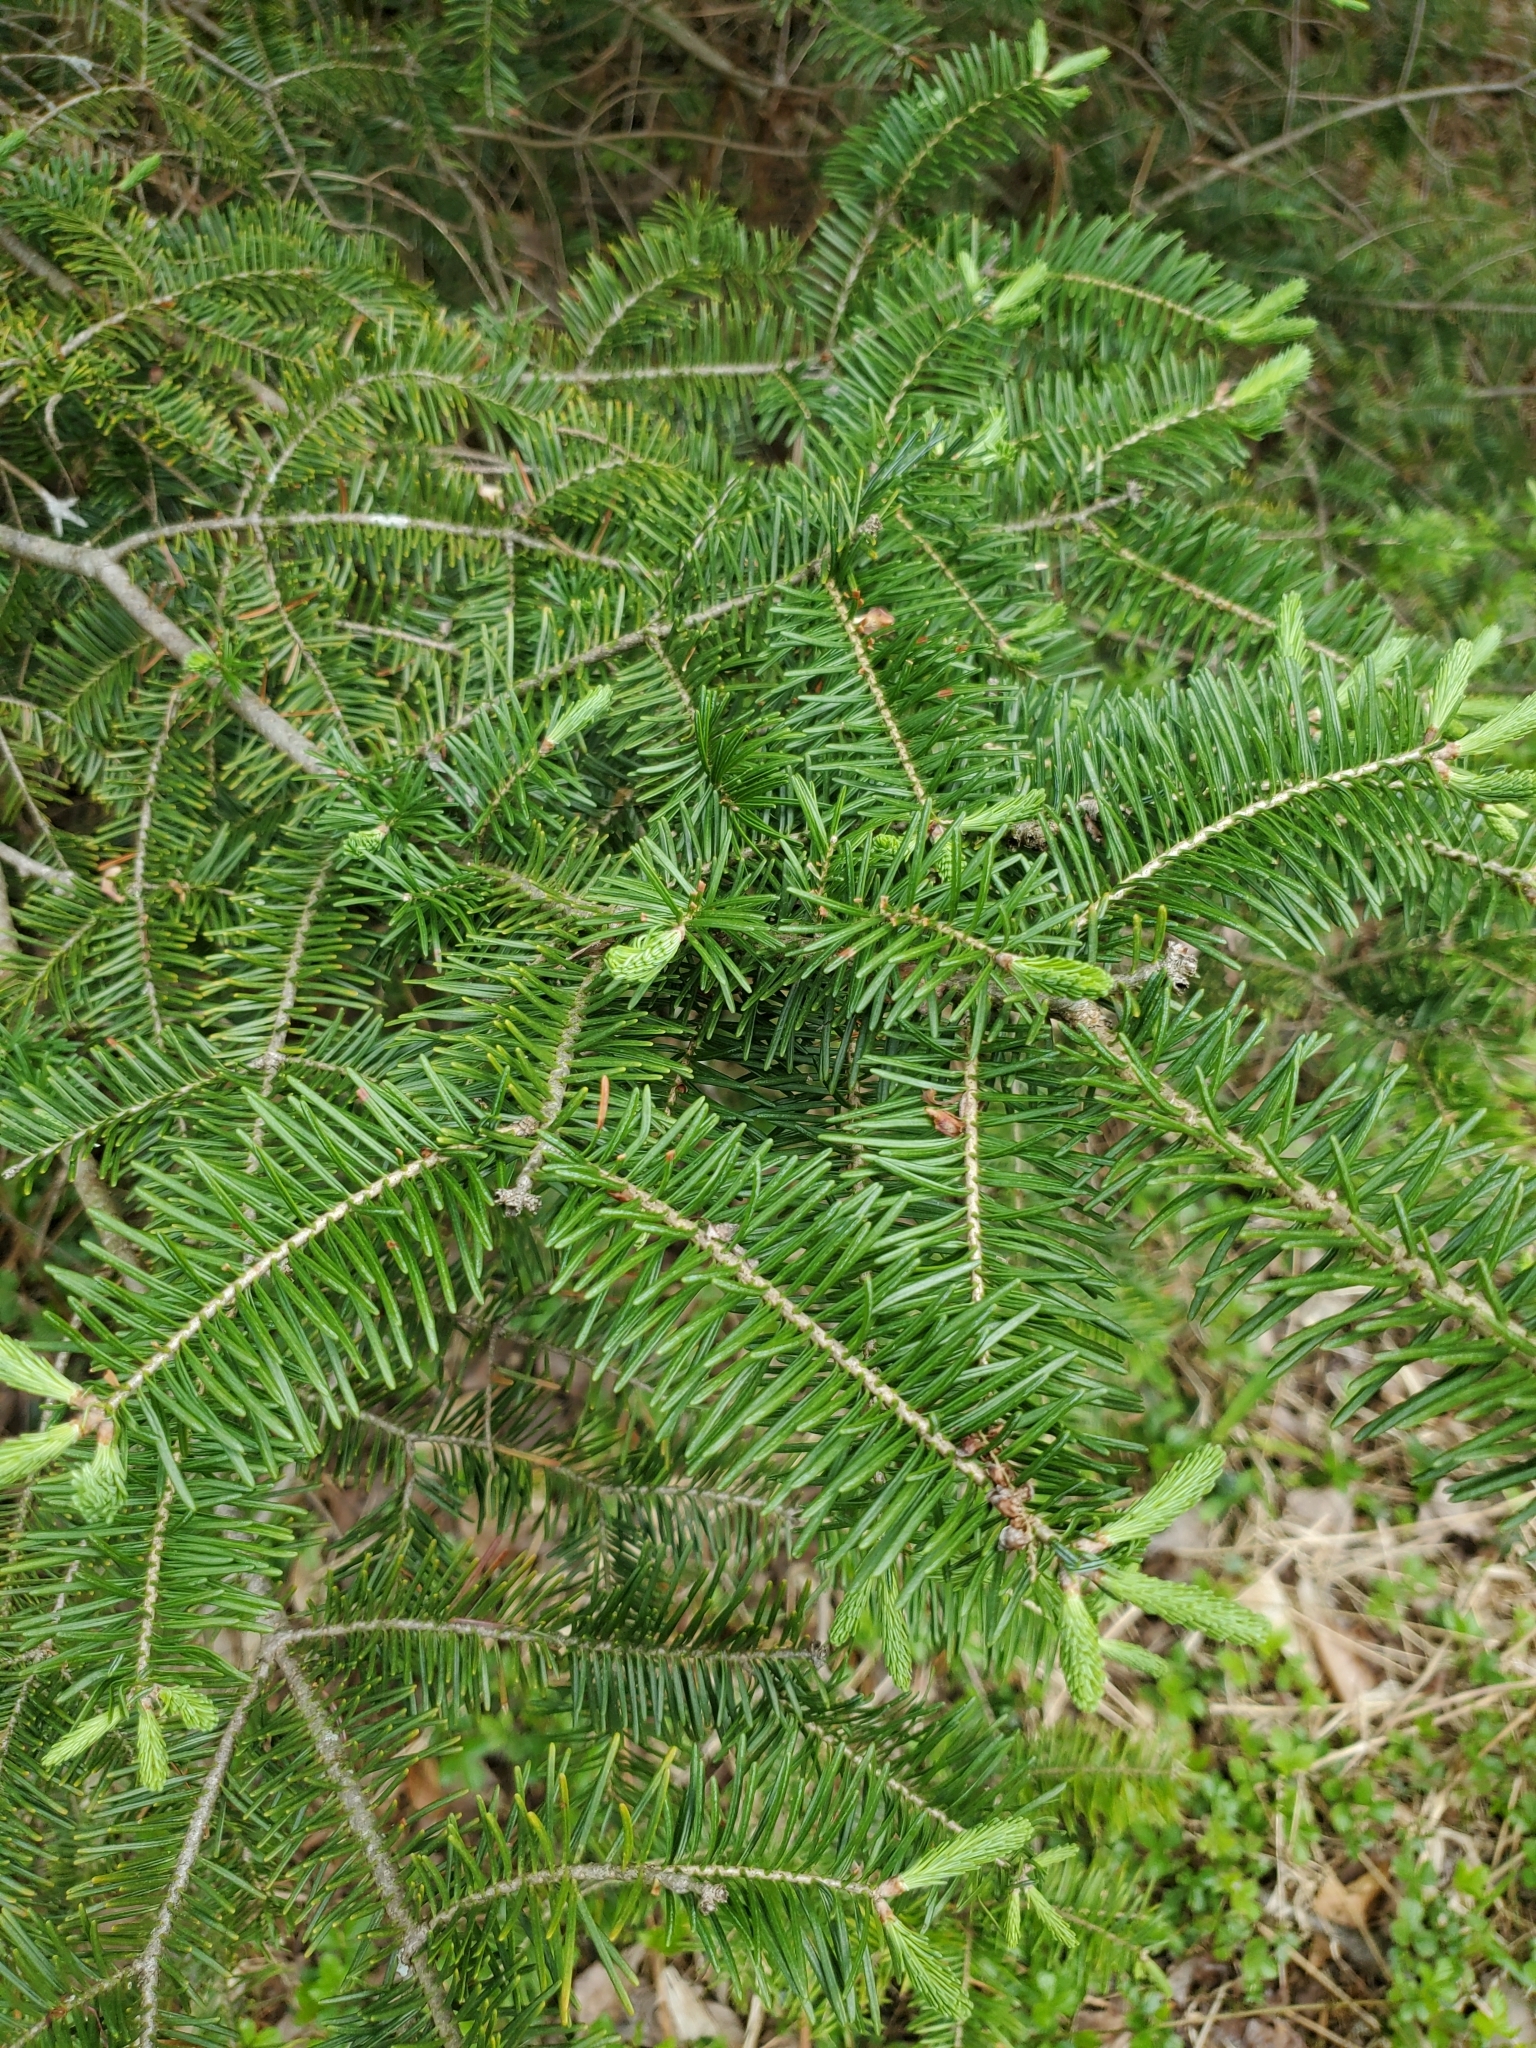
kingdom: Plantae
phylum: Tracheophyta
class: Pinopsida
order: Pinales
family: Pinaceae
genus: Abies
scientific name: Abies balsamea
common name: Balsam fir
